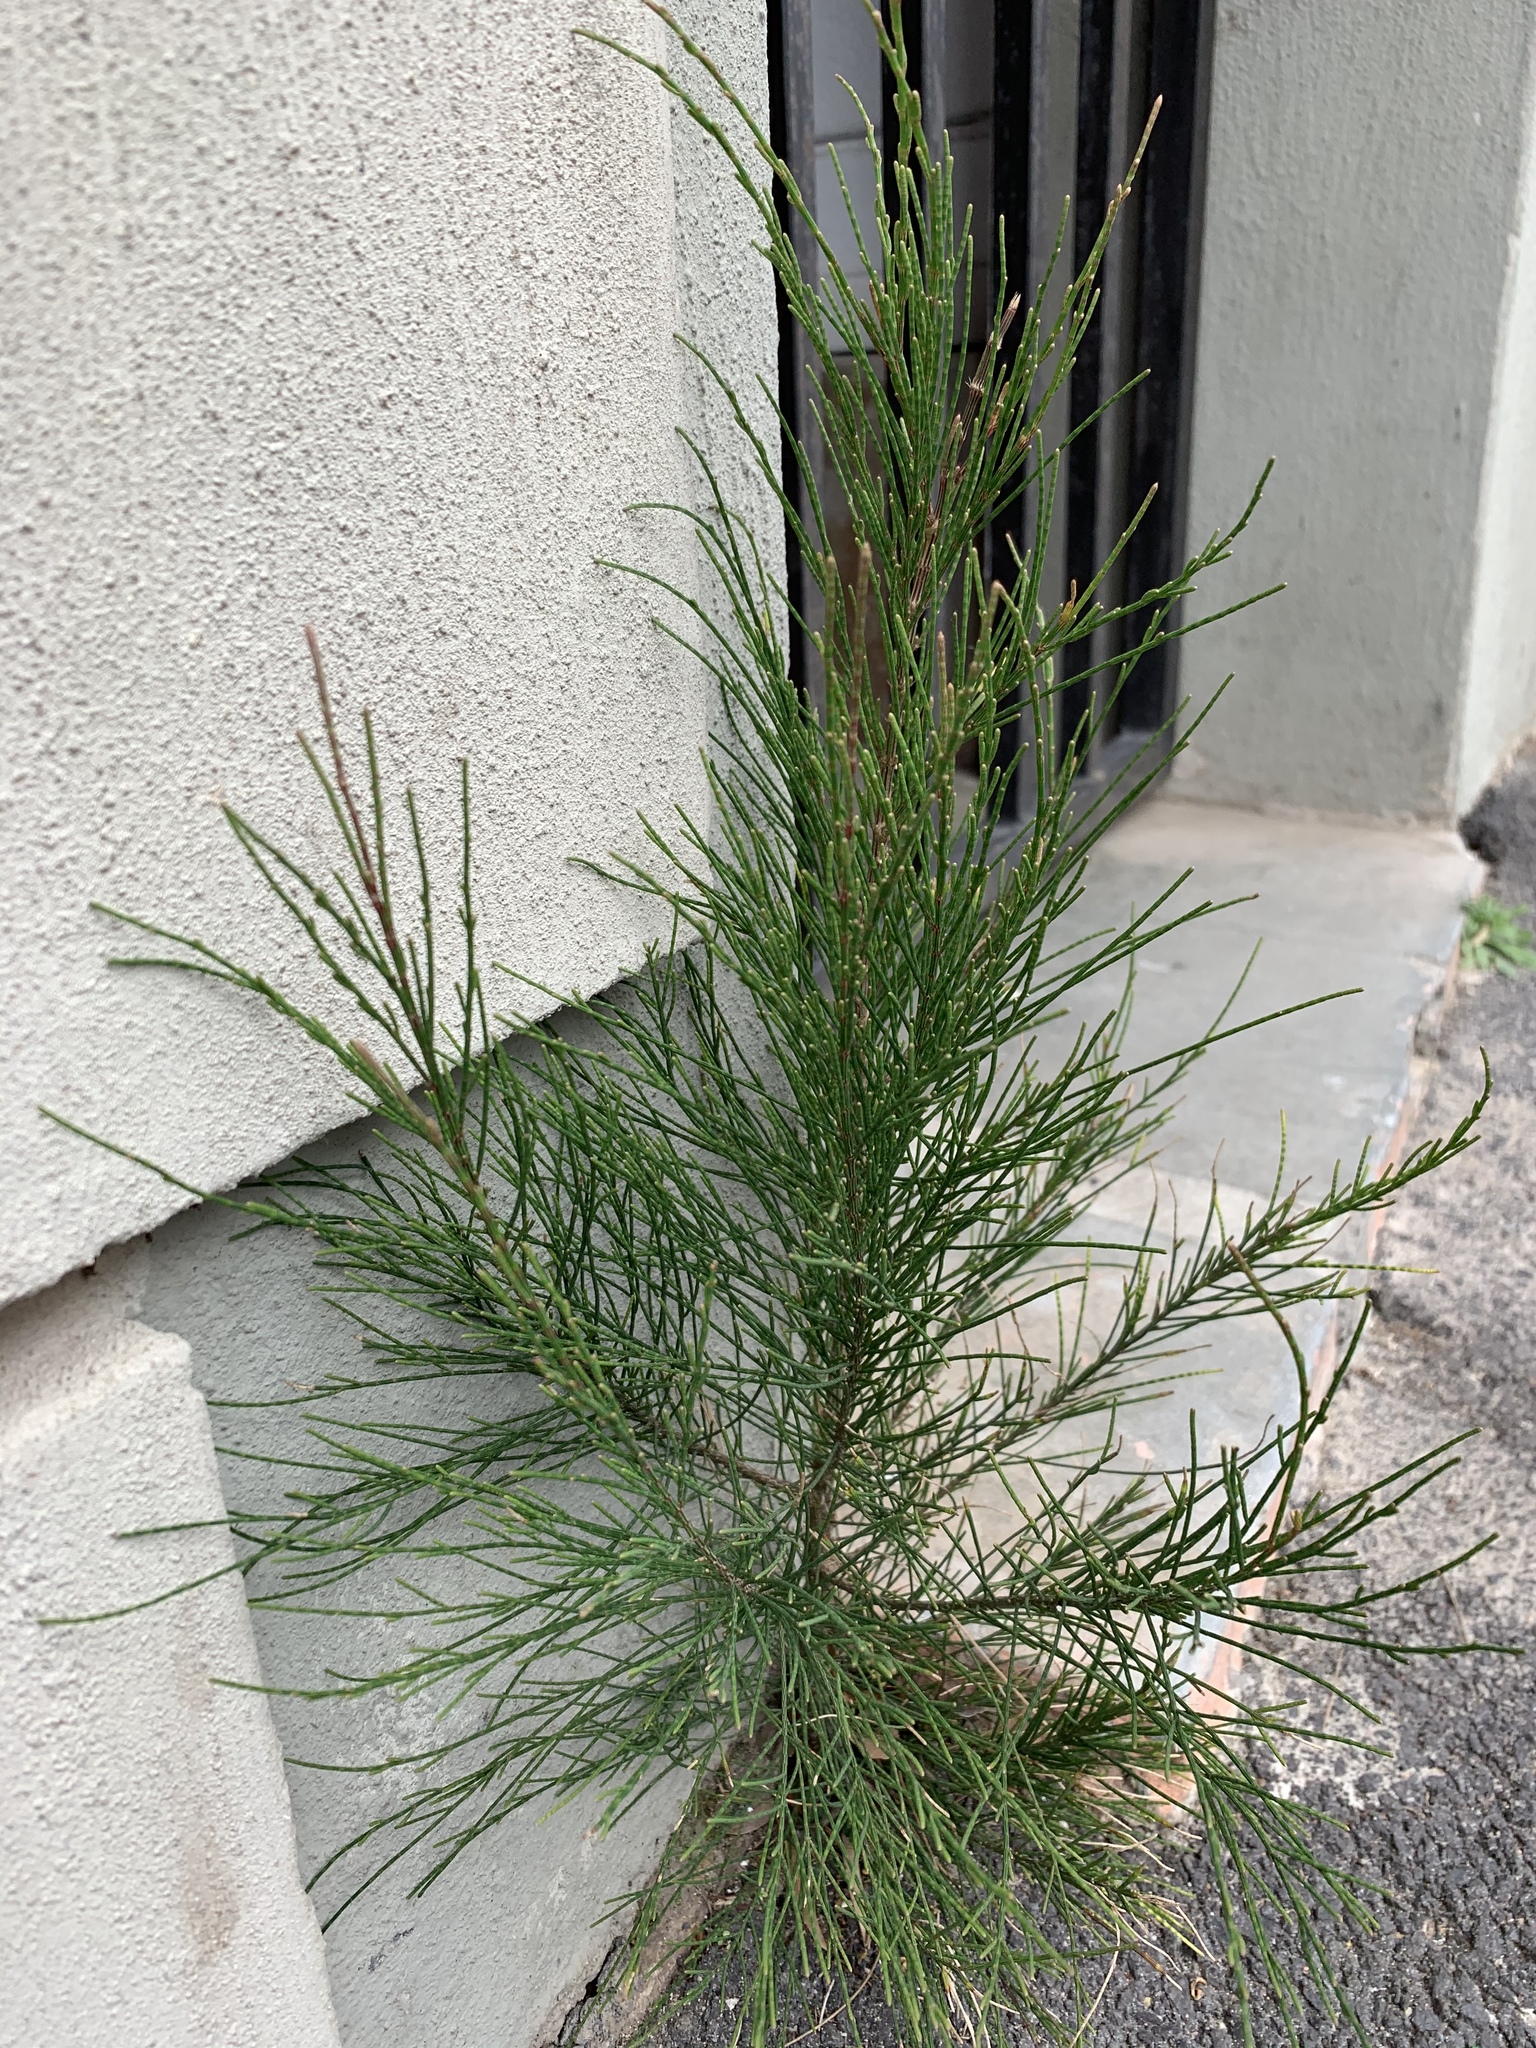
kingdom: Plantae
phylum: Tracheophyta
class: Magnoliopsida
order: Fagales
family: Casuarinaceae
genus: Casuarina
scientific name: Casuarina cunninghamiana
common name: River sheoak
